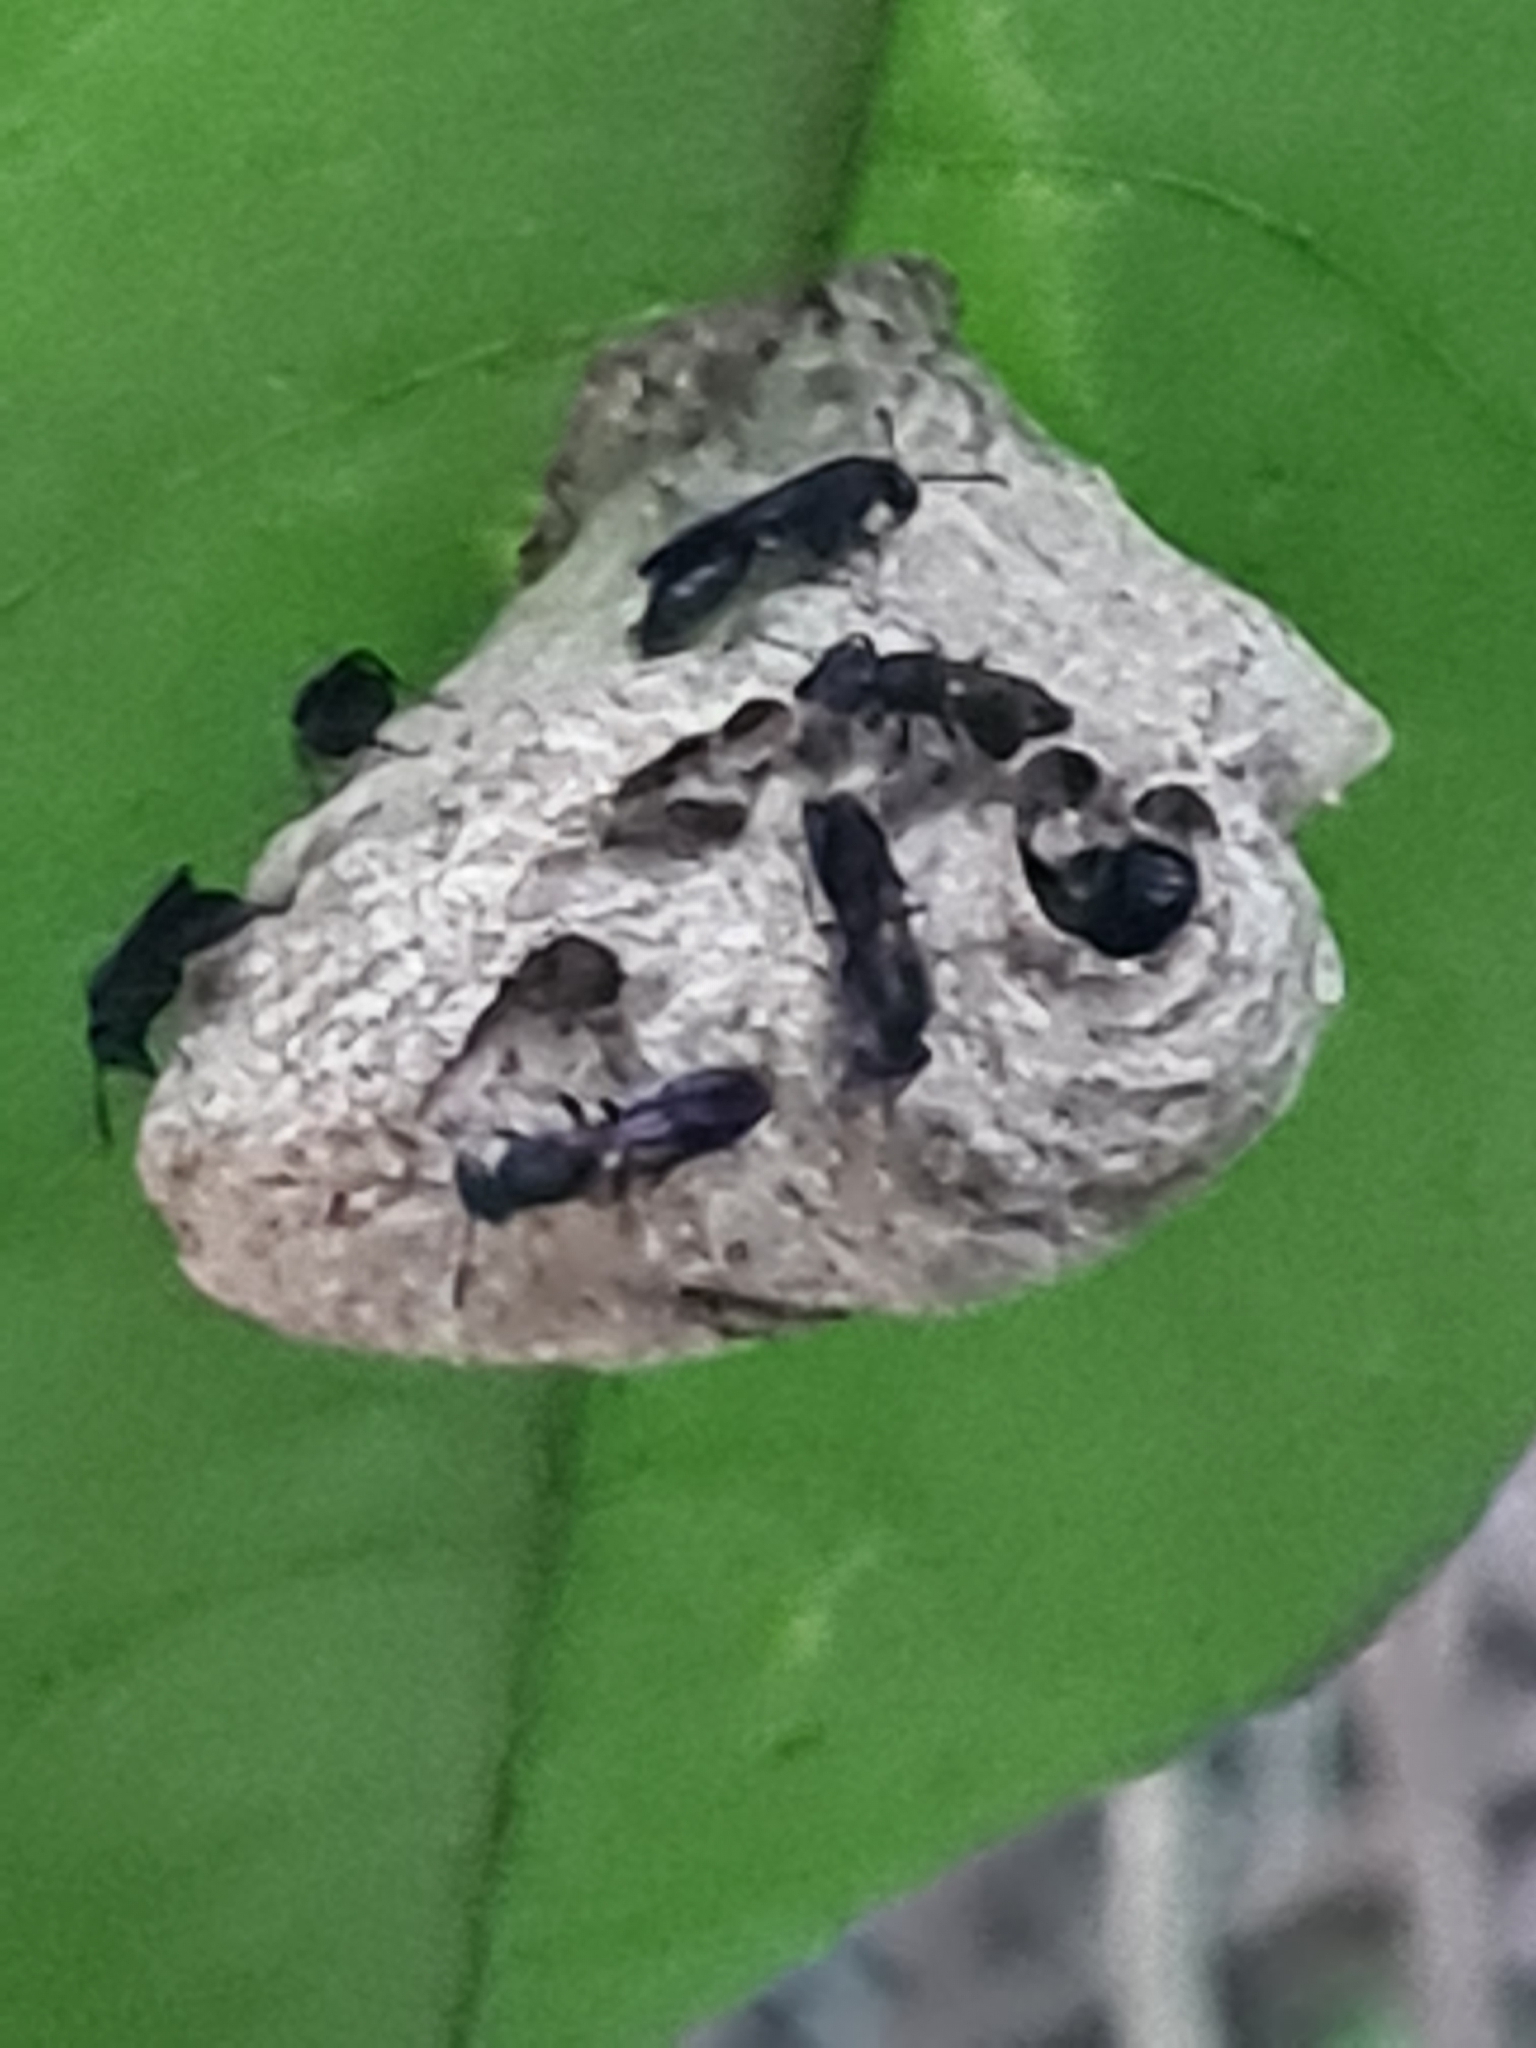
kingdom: Animalia
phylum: Arthropoda
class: Insecta
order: Hymenoptera
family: Eumenidae
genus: Polybia
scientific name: Polybia
